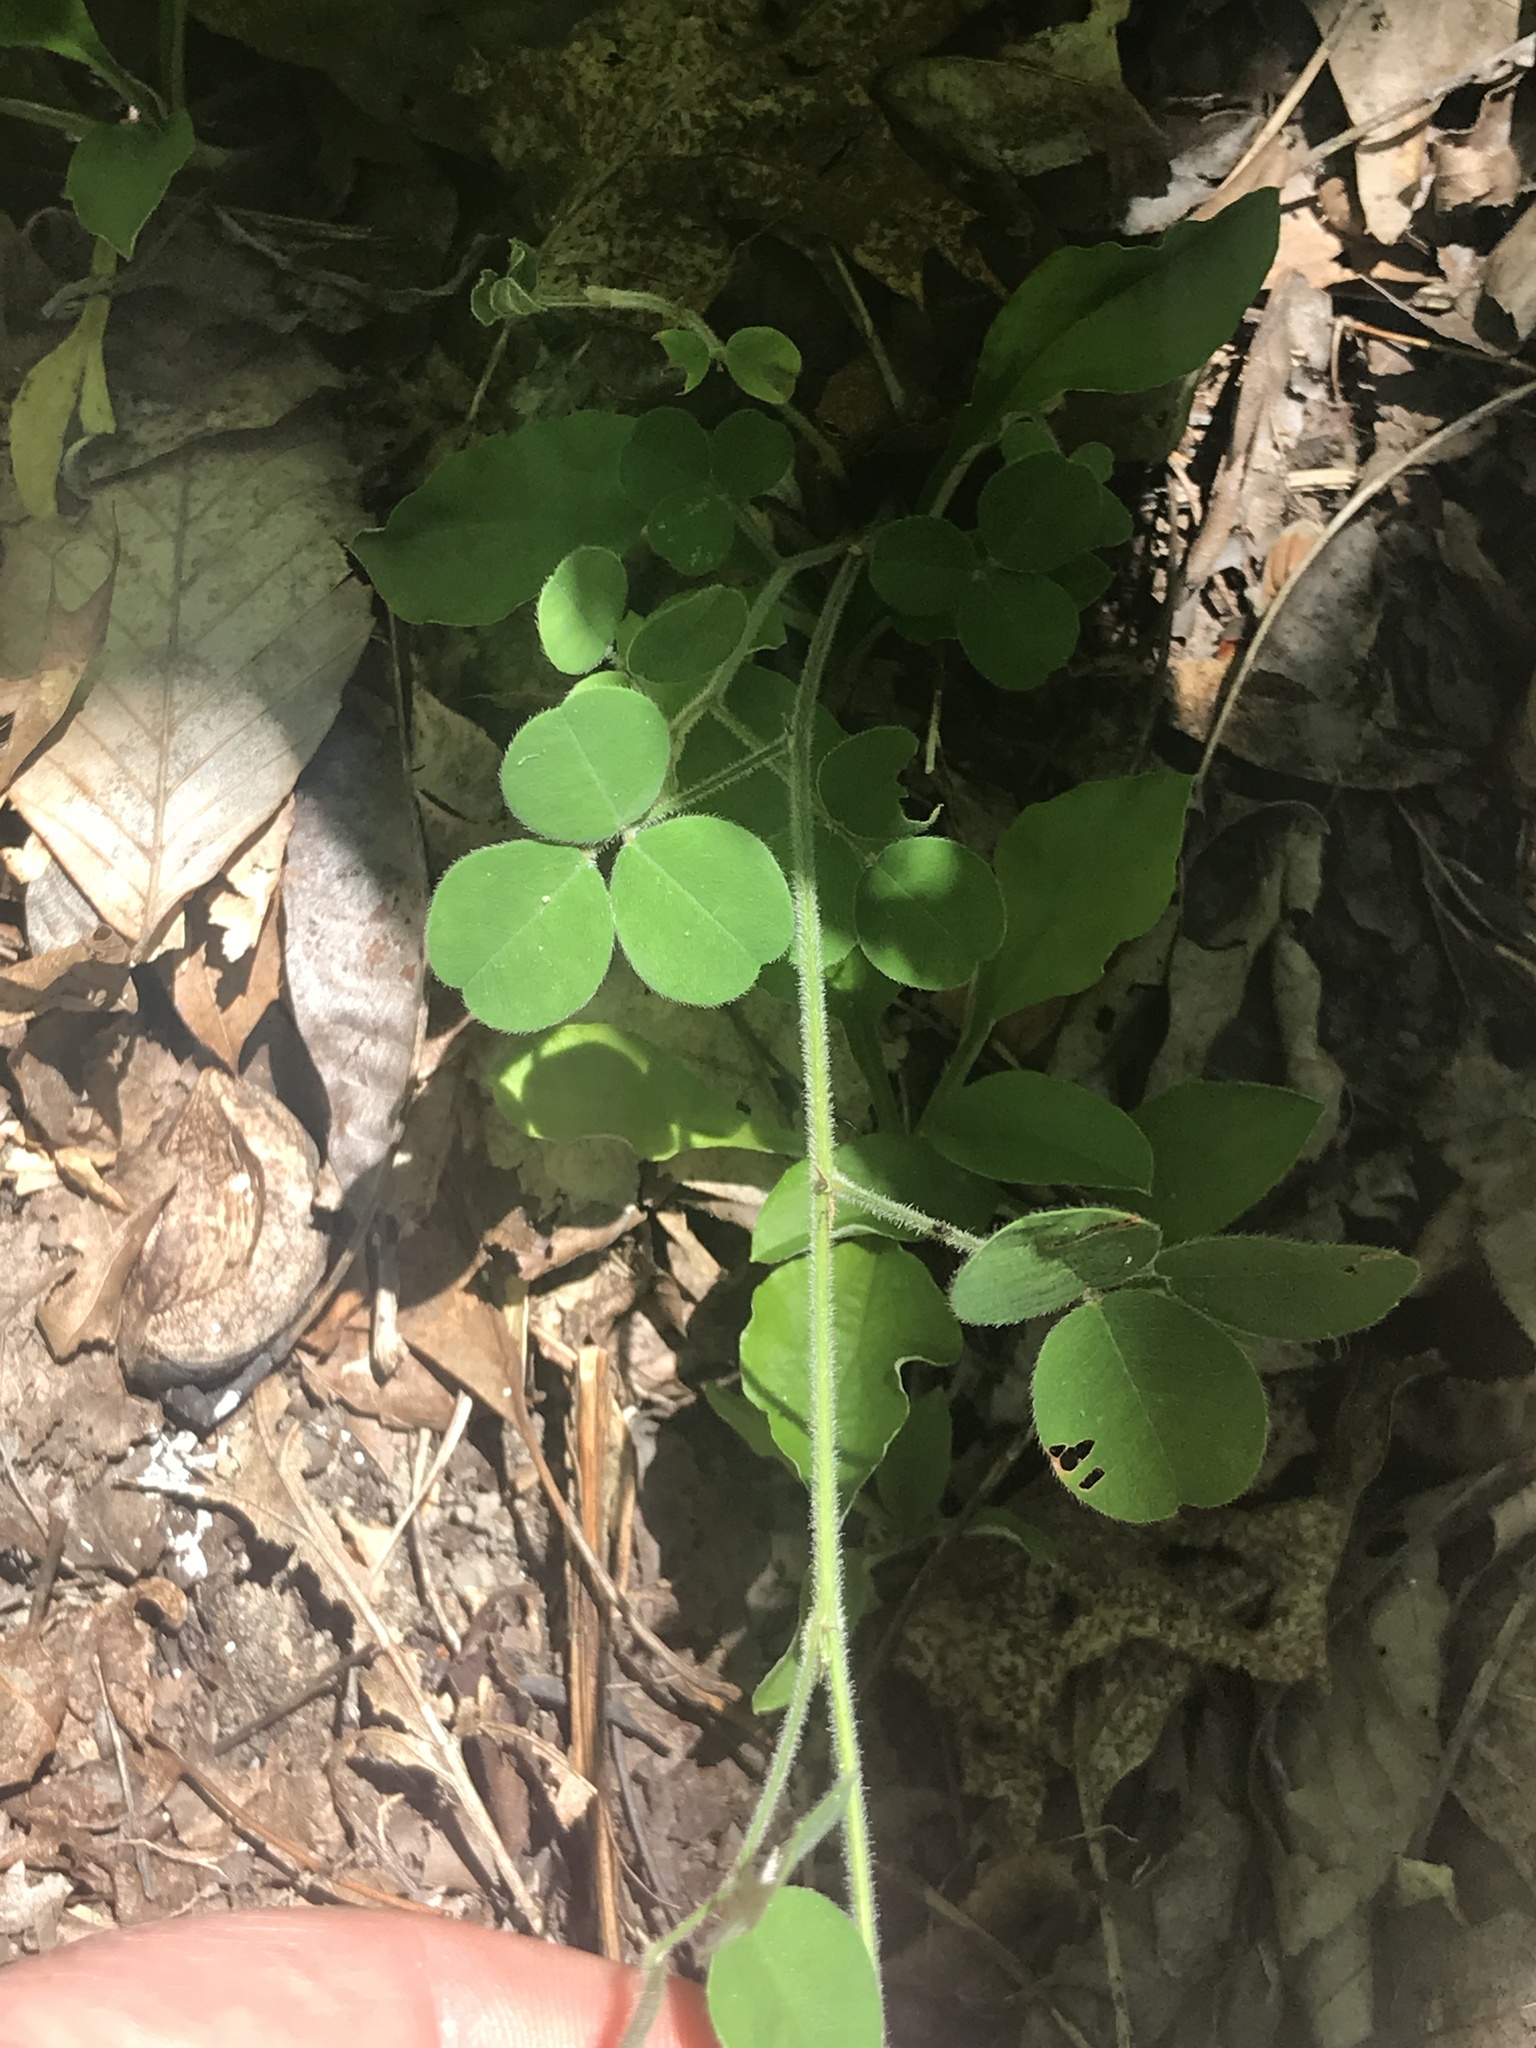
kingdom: Plantae
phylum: Tracheophyta
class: Magnoliopsida
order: Fabales
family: Fabaceae
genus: Lespedeza
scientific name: Lespedeza procumbens
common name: Downy trailing bush-clover
